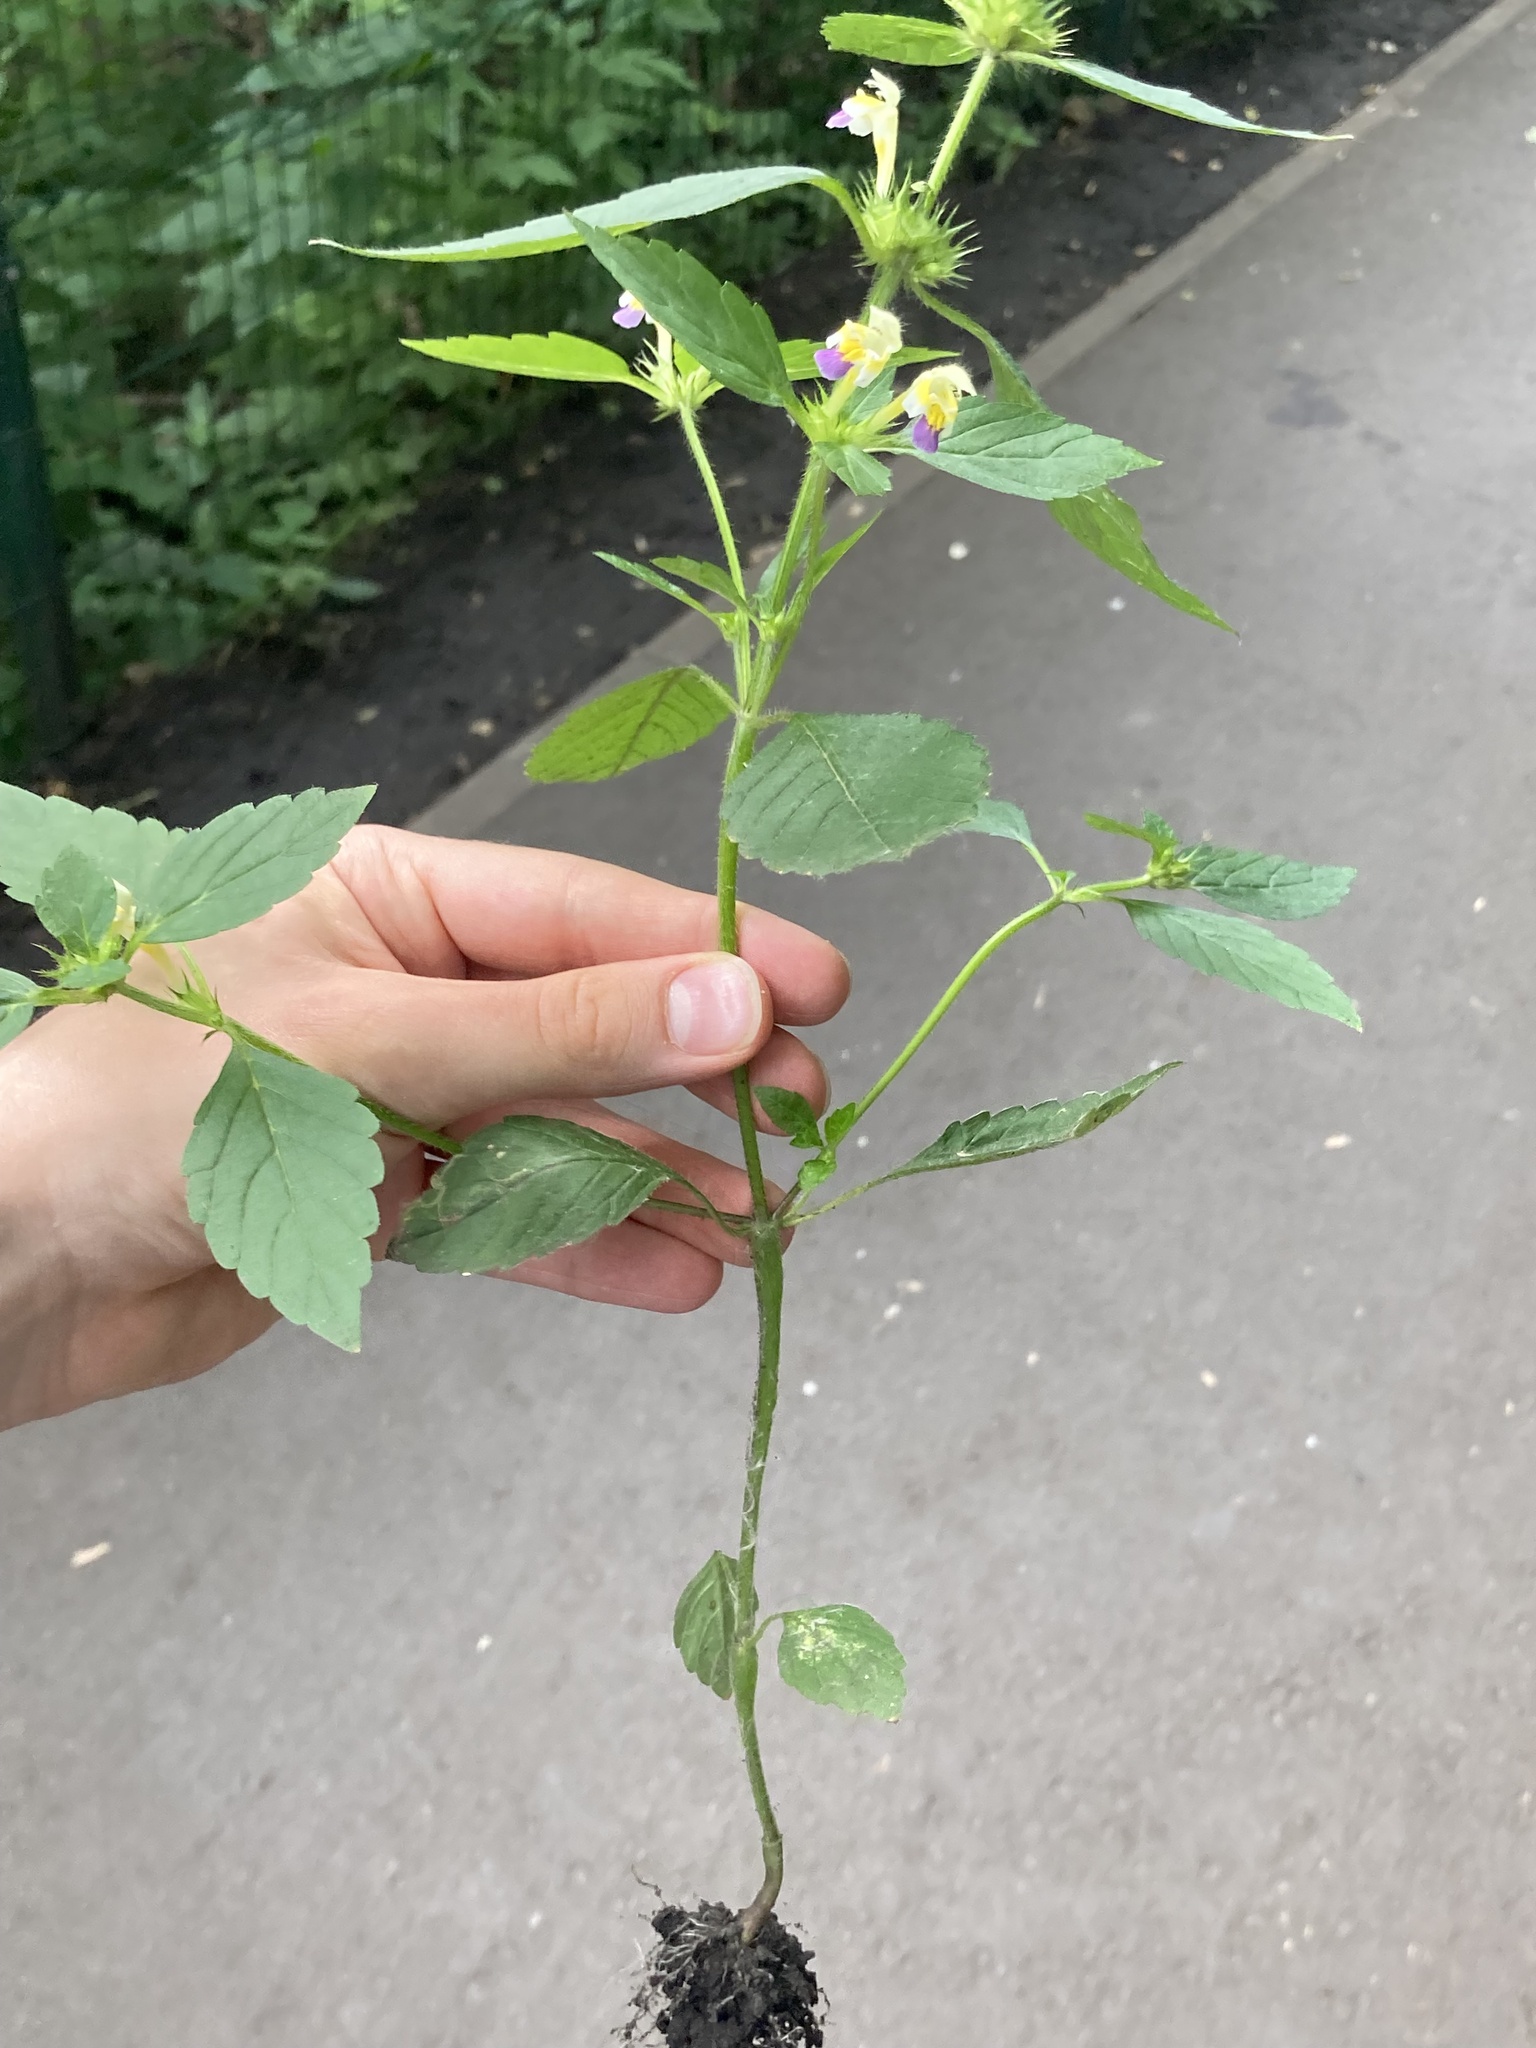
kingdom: Plantae
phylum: Tracheophyta
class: Magnoliopsida
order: Lamiales
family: Lamiaceae
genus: Galeopsis
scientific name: Galeopsis speciosa
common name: Large-flowered hemp-nettle
